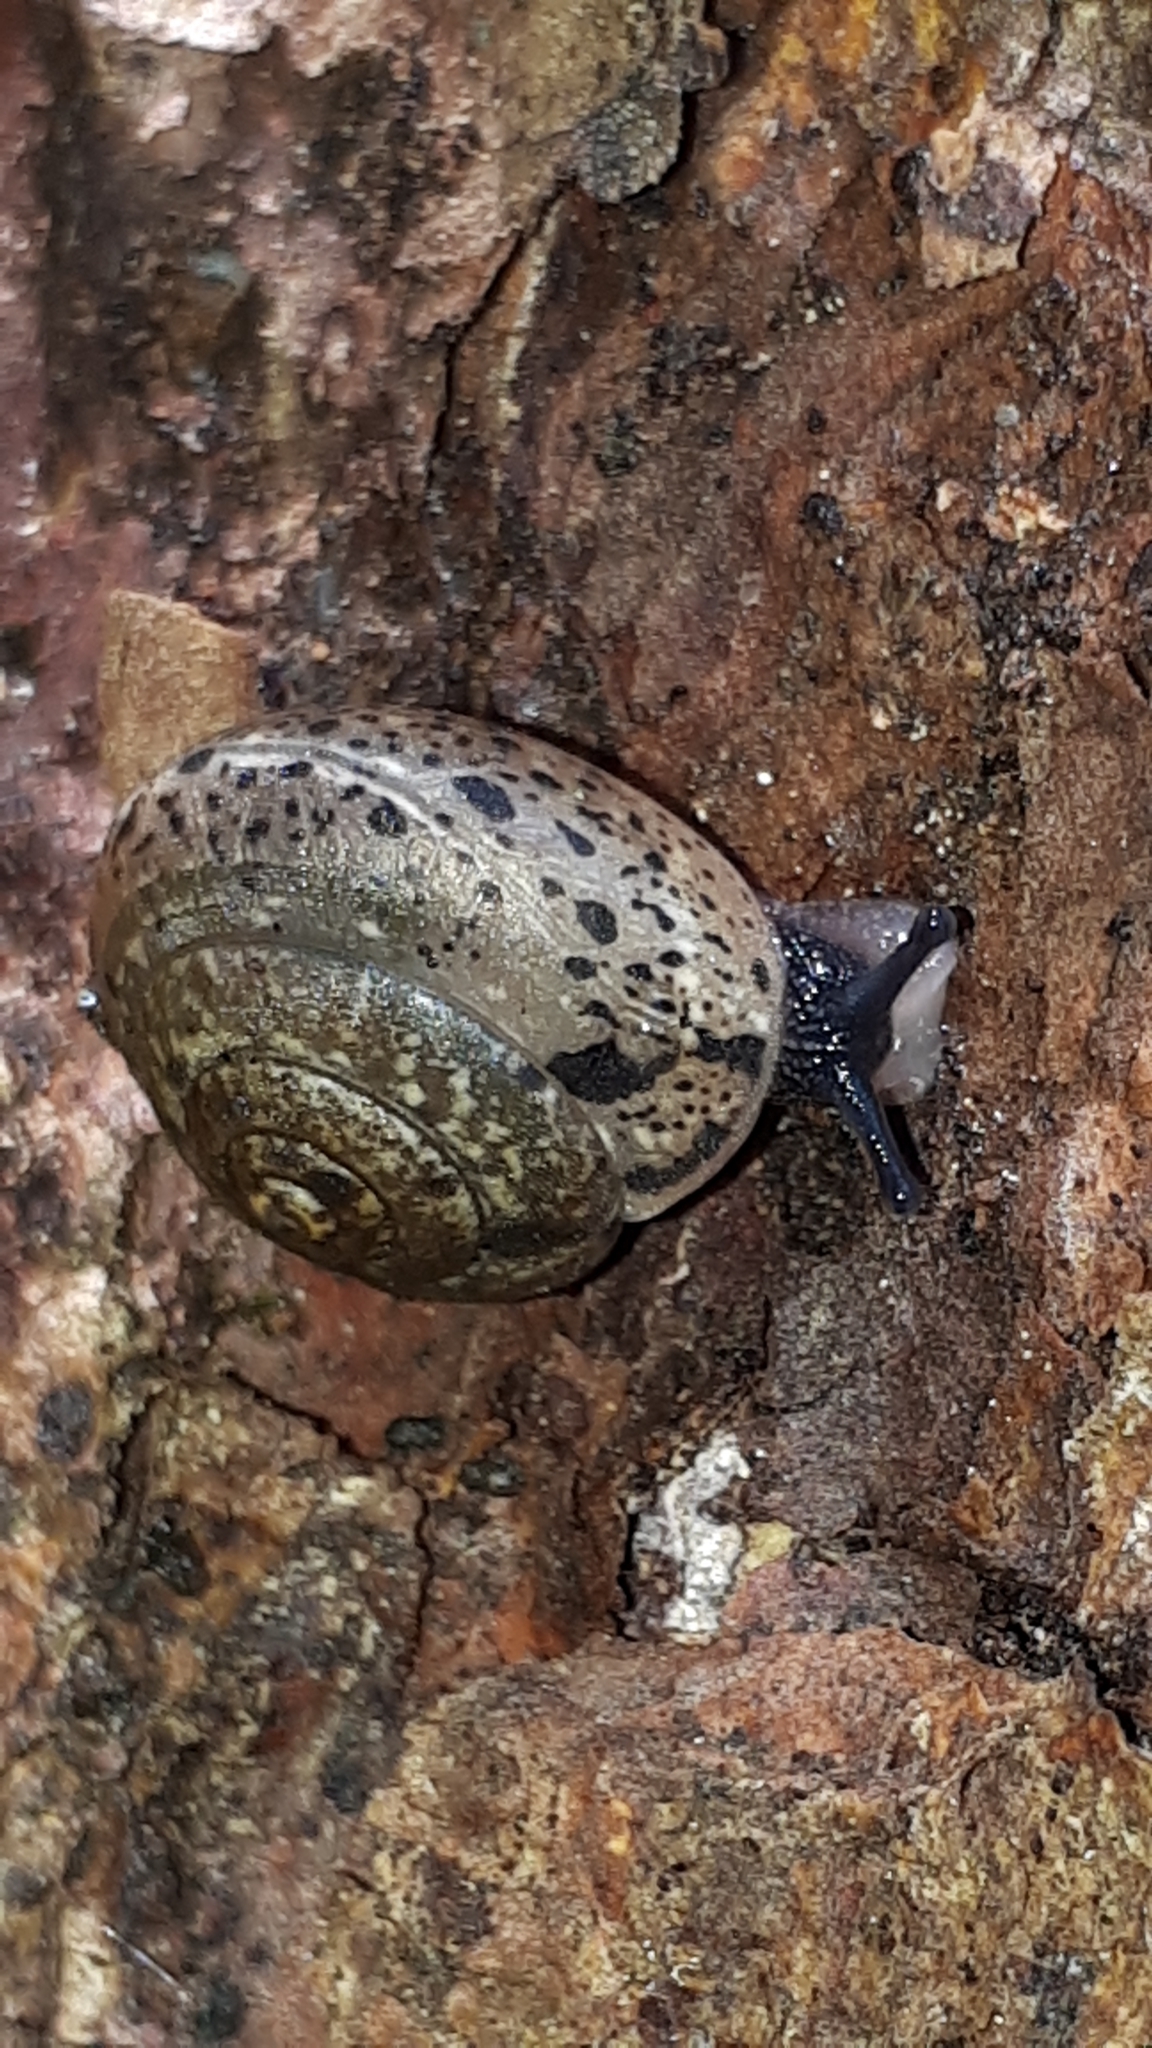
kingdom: Animalia
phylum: Mollusca
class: Gastropoda
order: Stylommatophora
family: Hygromiidae
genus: Monachoides
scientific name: Monachoides incarnatus
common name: Incarnate snail
